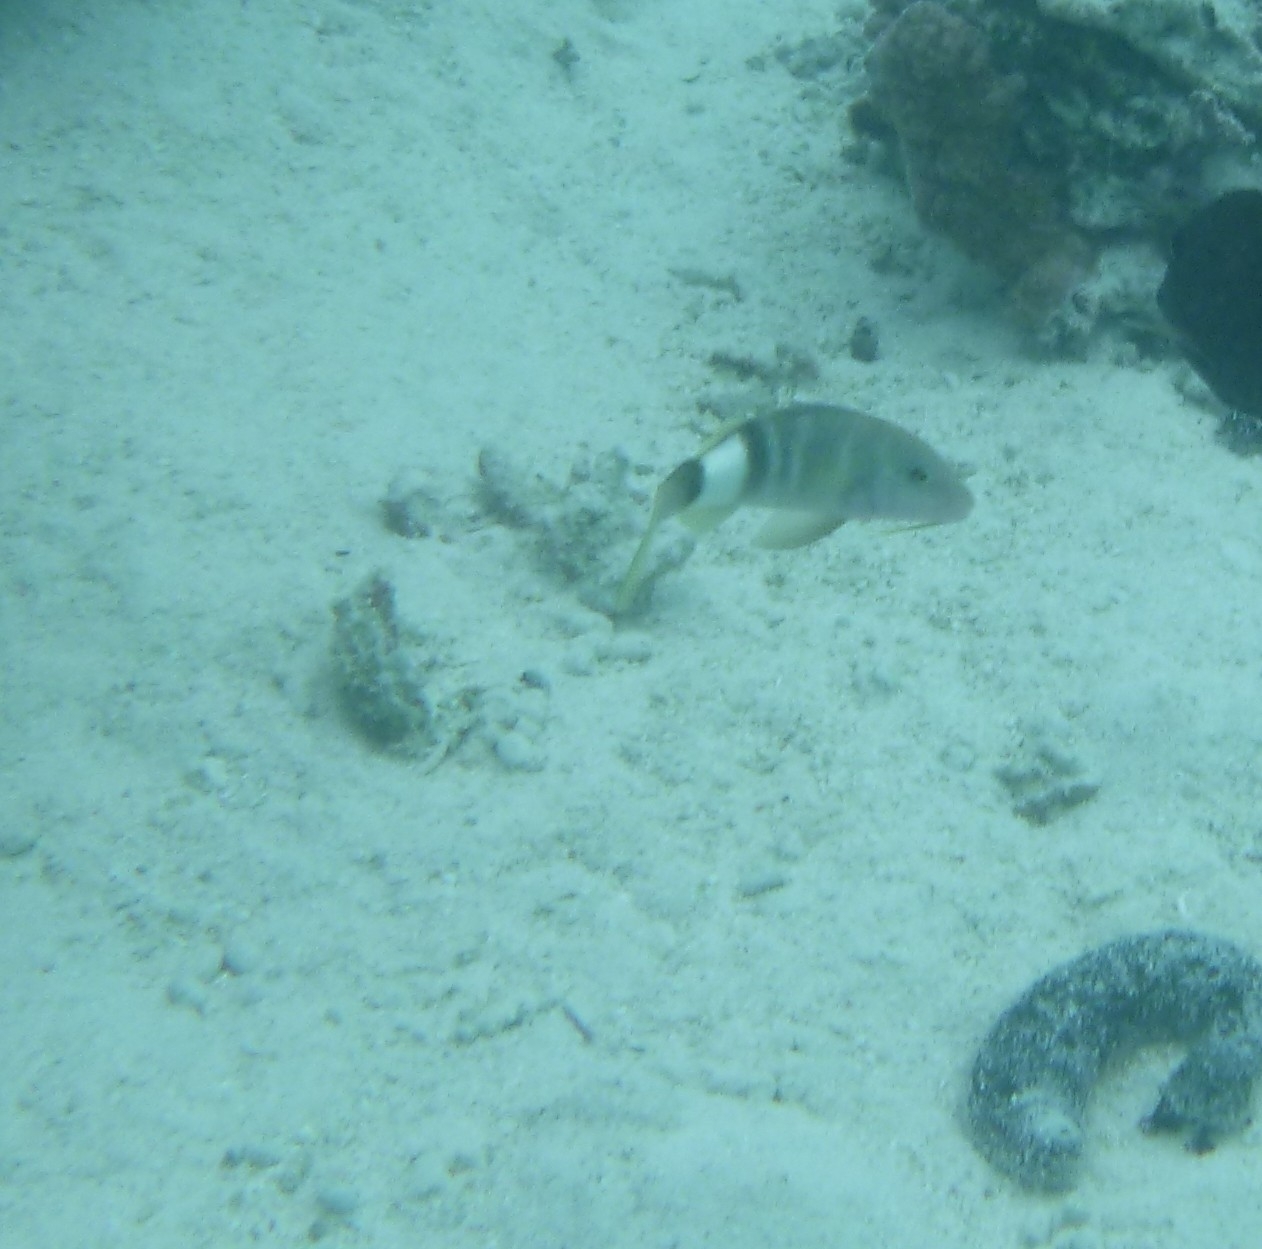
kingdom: Animalia
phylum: Chordata
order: Perciformes
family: Mullidae
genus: Parupeneus
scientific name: Parupeneus multifasciatus
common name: Manybar goatfish
